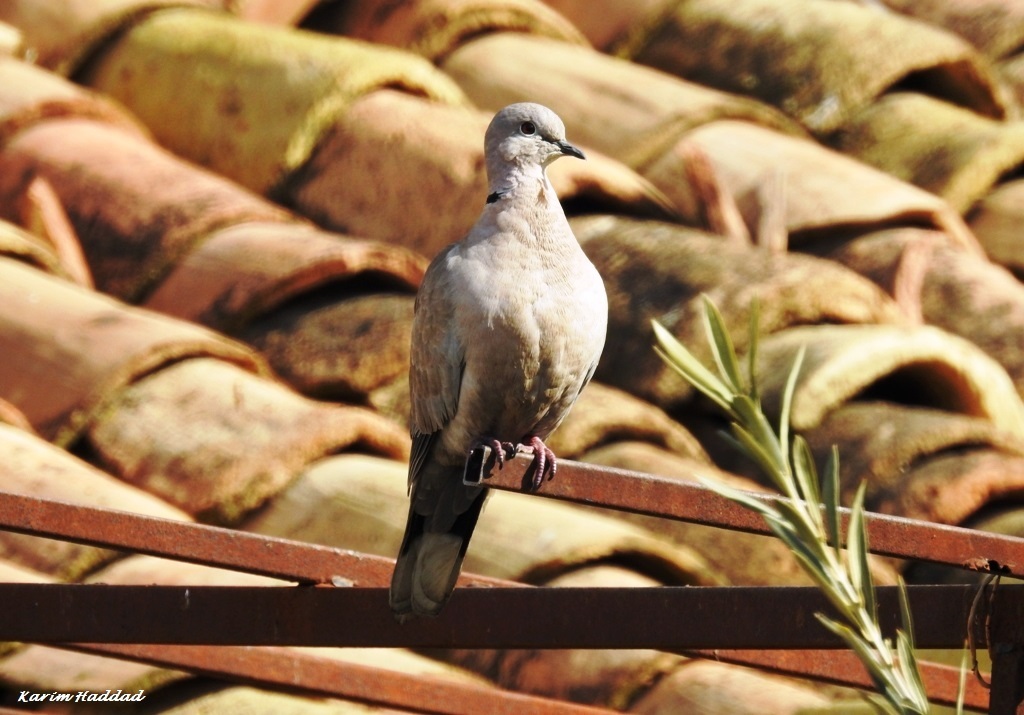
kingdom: Animalia
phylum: Chordata
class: Aves
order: Columbiformes
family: Columbidae
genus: Streptopelia
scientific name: Streptopelia decaocto
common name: Eurasian collared dove
